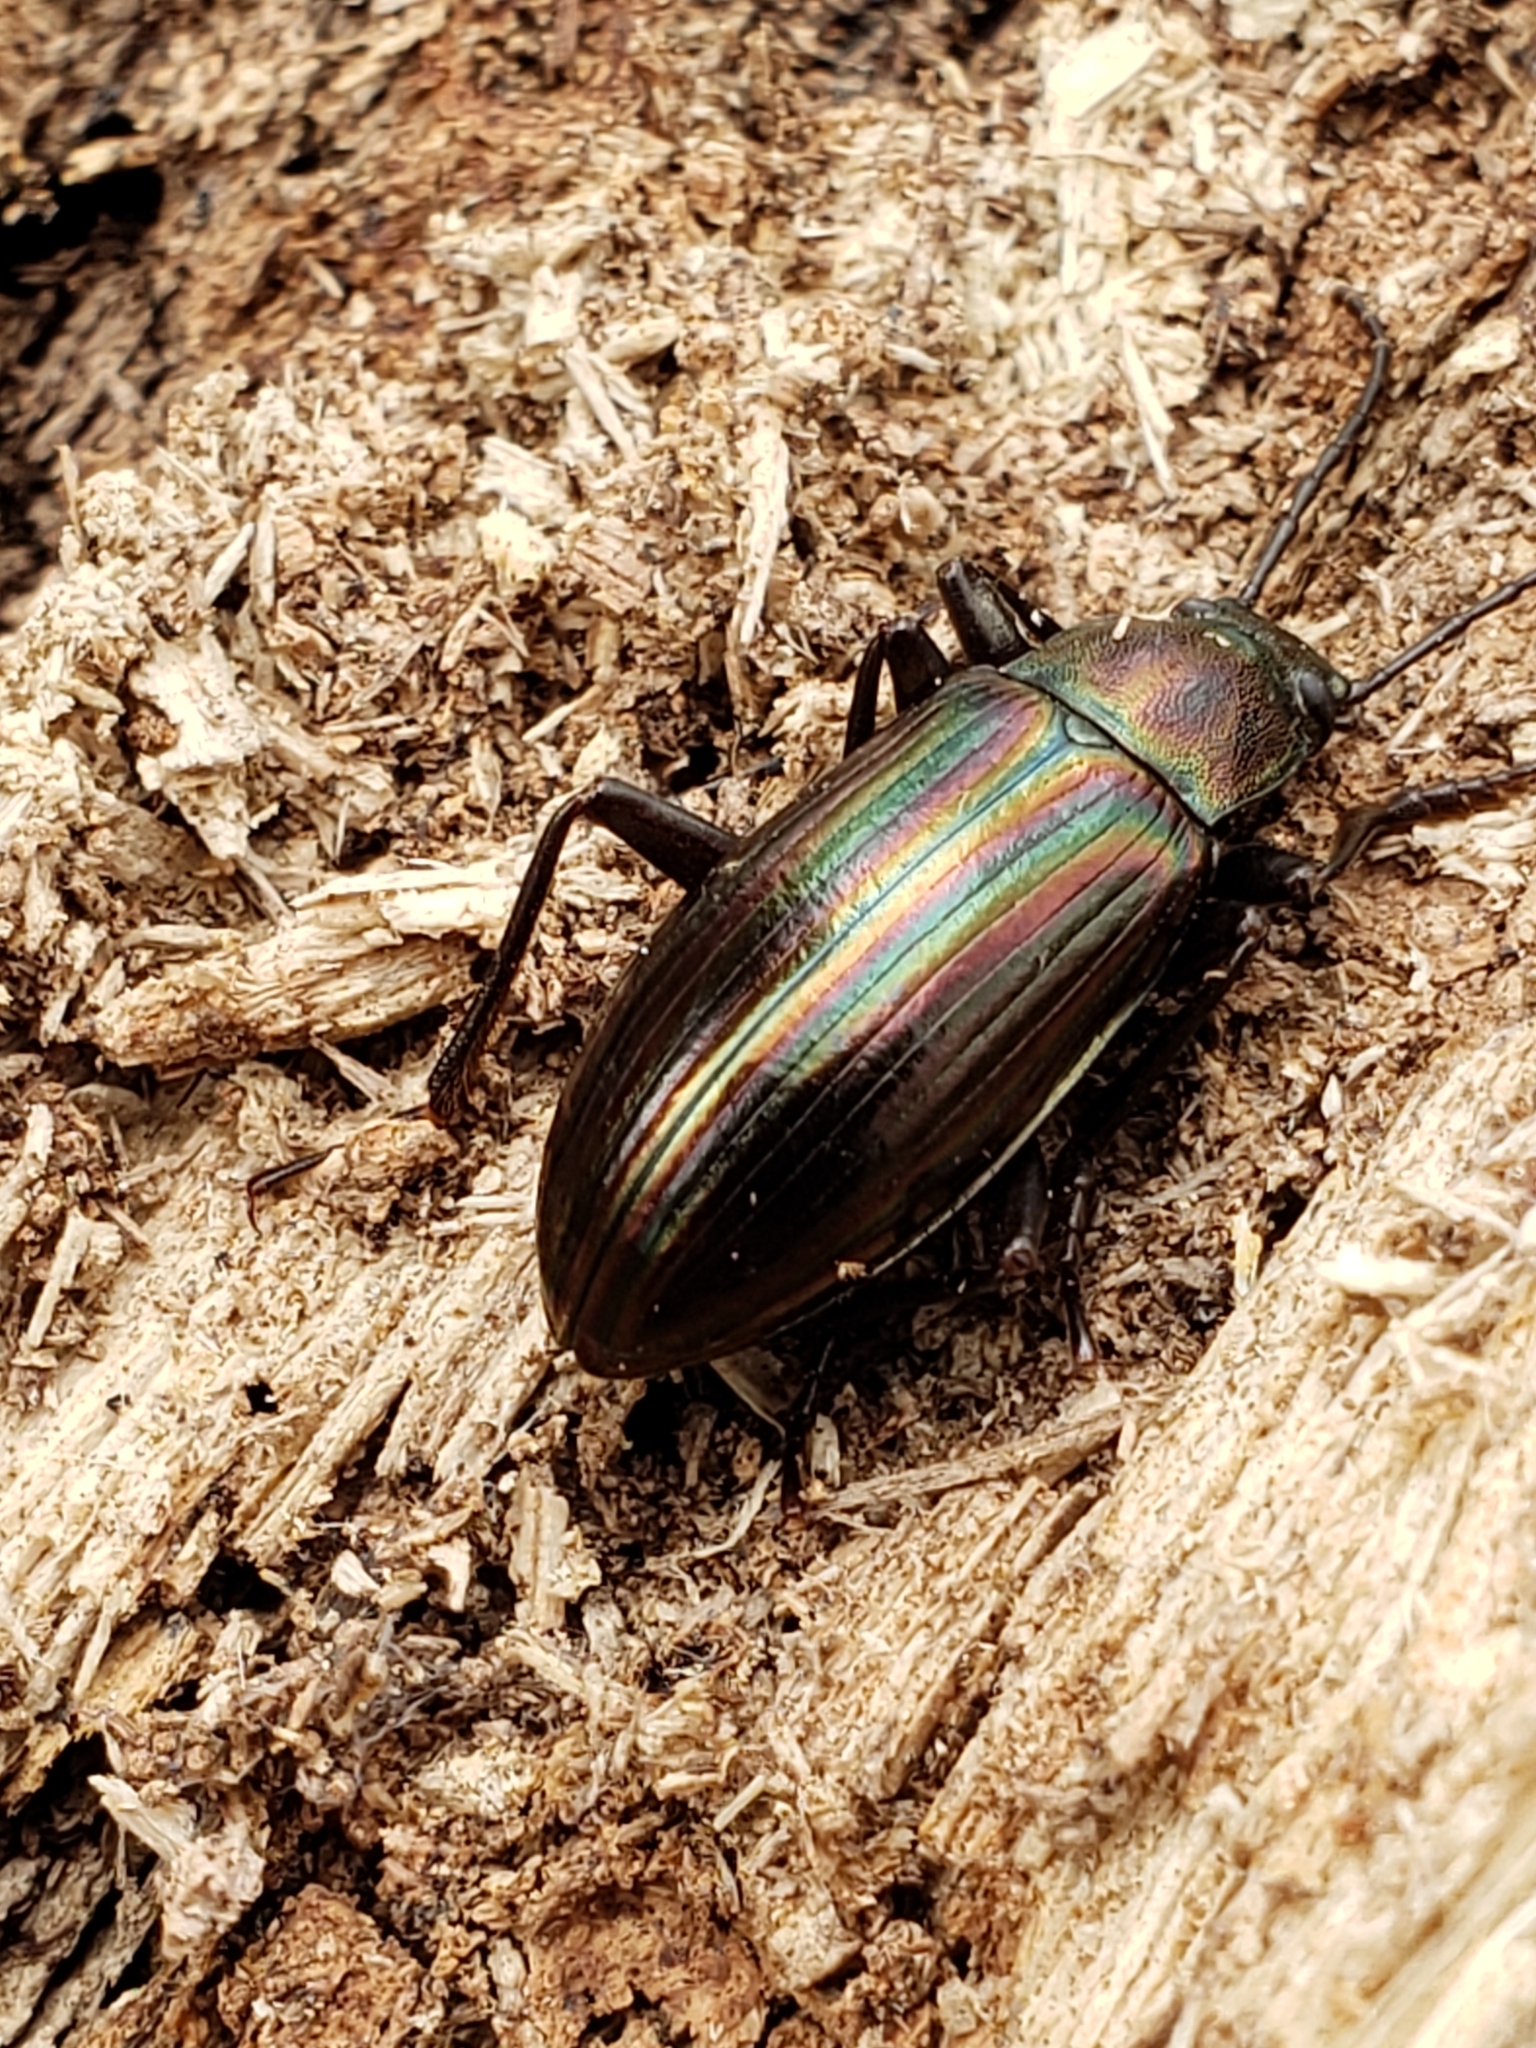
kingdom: Animalia
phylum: Arthropoda
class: Insecta
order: Coleoptera
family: Tenebrionidae
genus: Tarpela
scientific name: Tarpela micans
